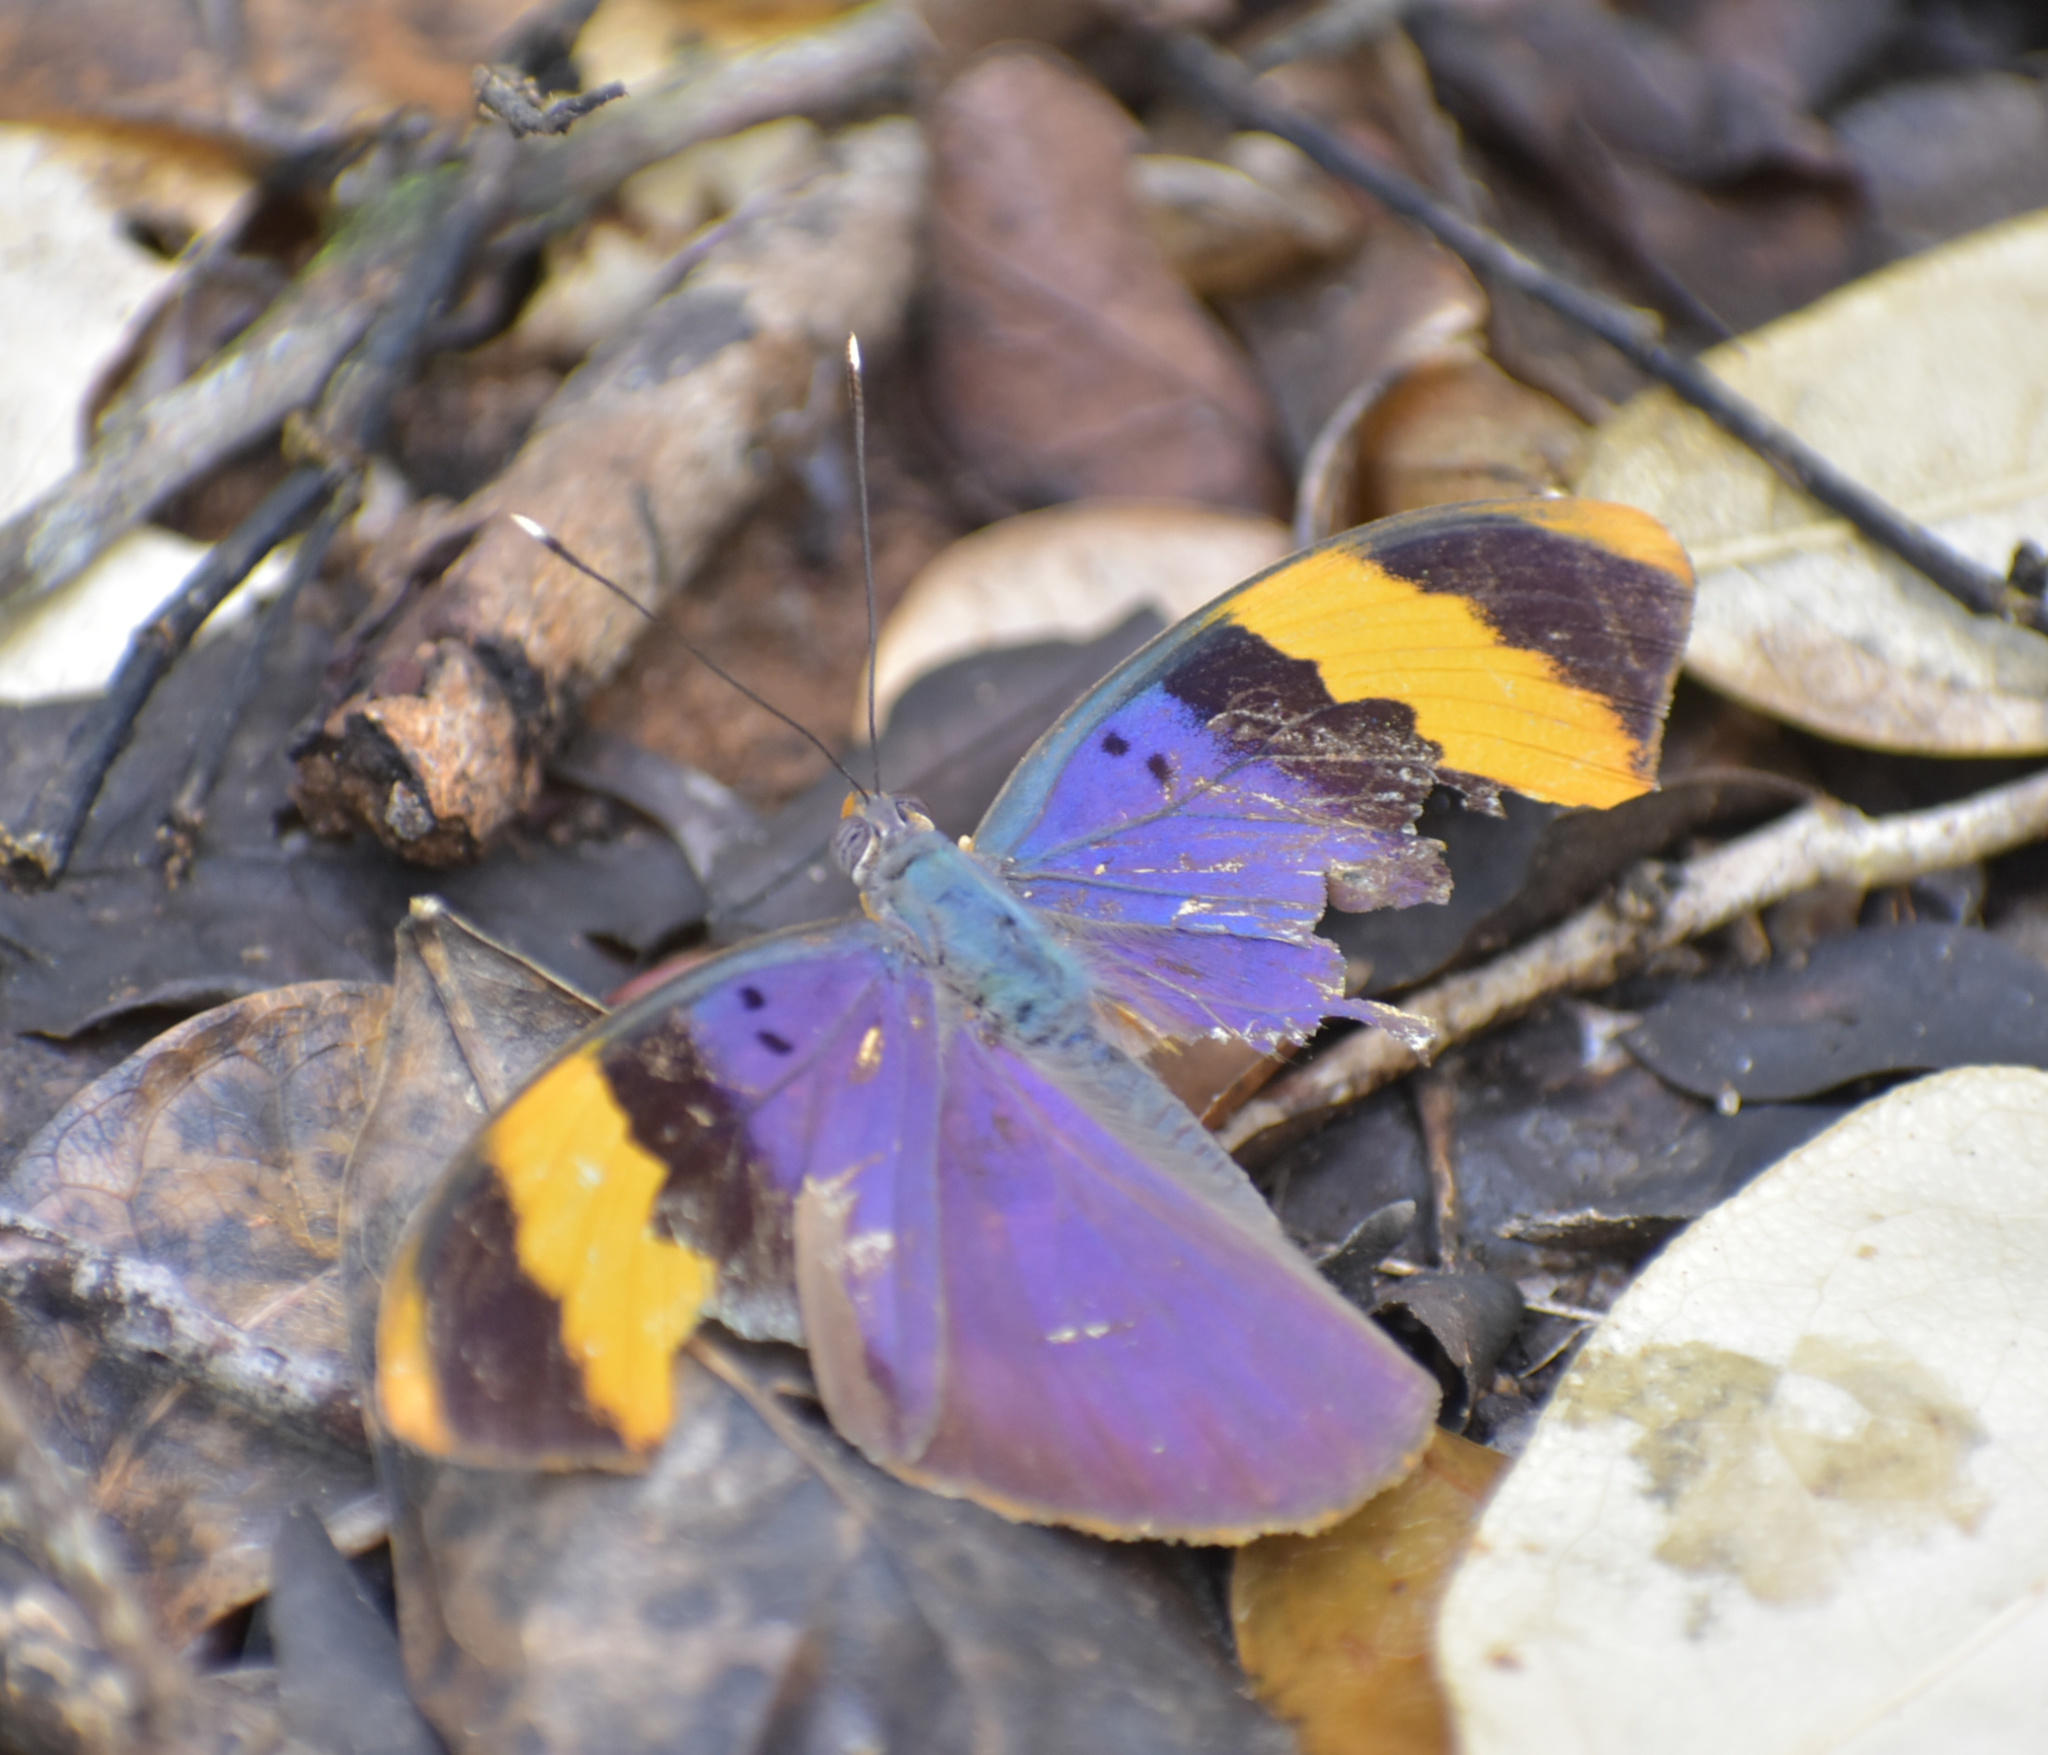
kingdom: Animalia
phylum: Arthropoda
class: Insecta
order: Lepidoptera
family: Nymphalidae
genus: Euphaedra
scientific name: Euphaedra neophron
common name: Gold-banded forester
